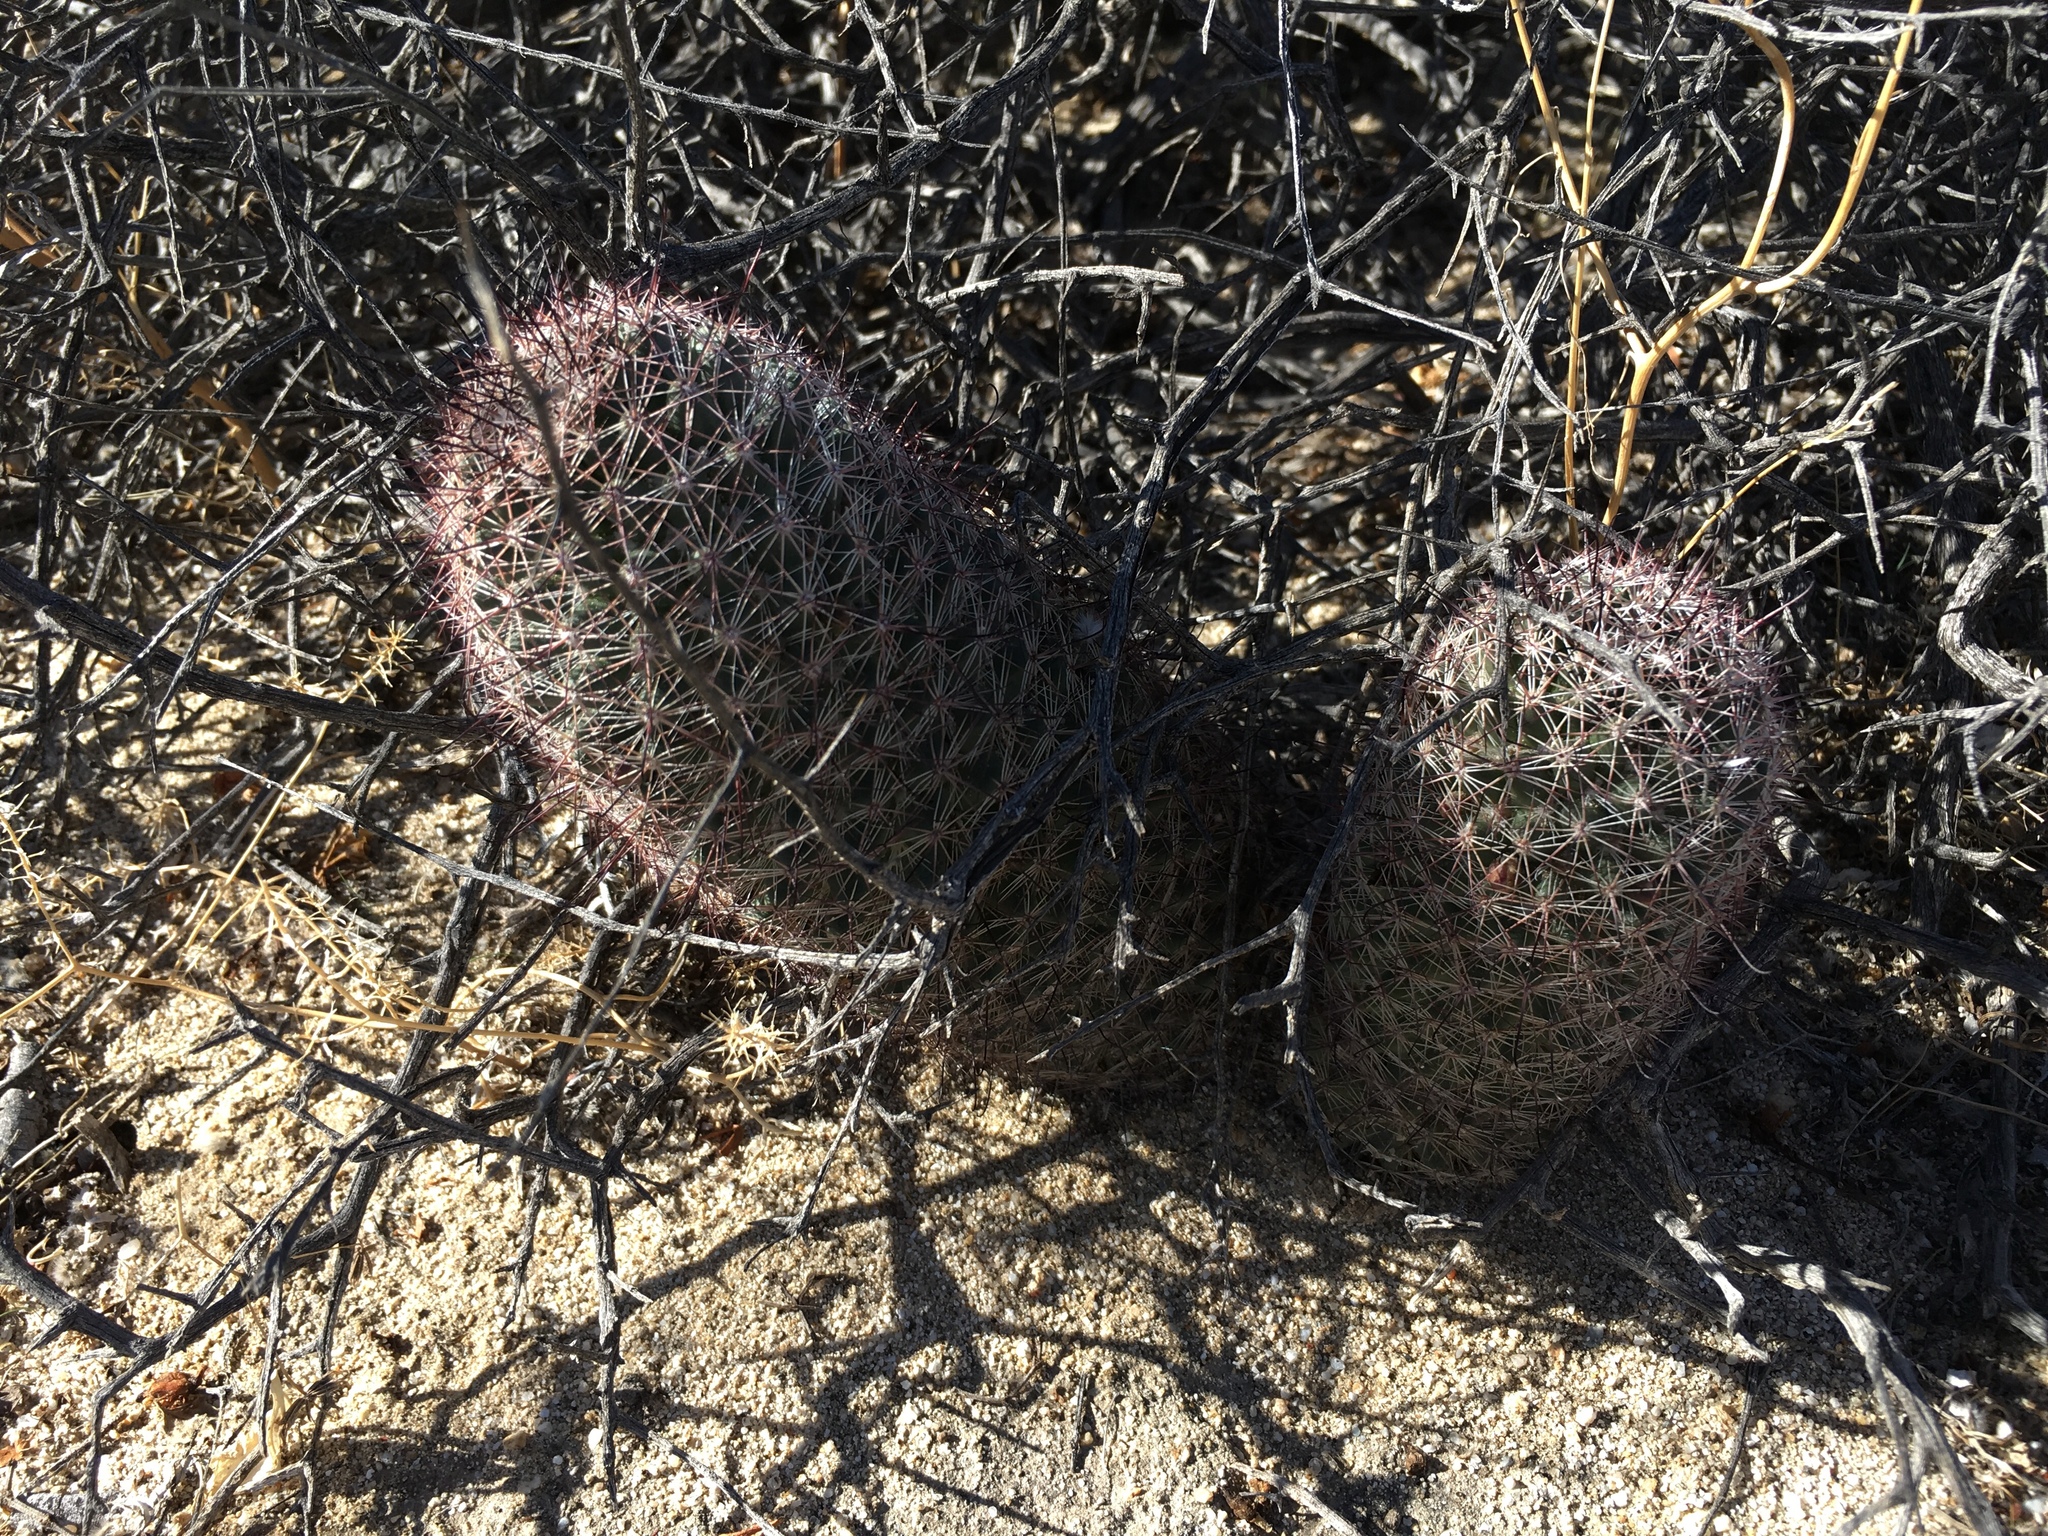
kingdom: Plantae
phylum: Tracheophyta
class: Magnoliopsida
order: Caryophyllales
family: Cactaceae
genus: Cochemiea
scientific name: Cochemiea dioica
